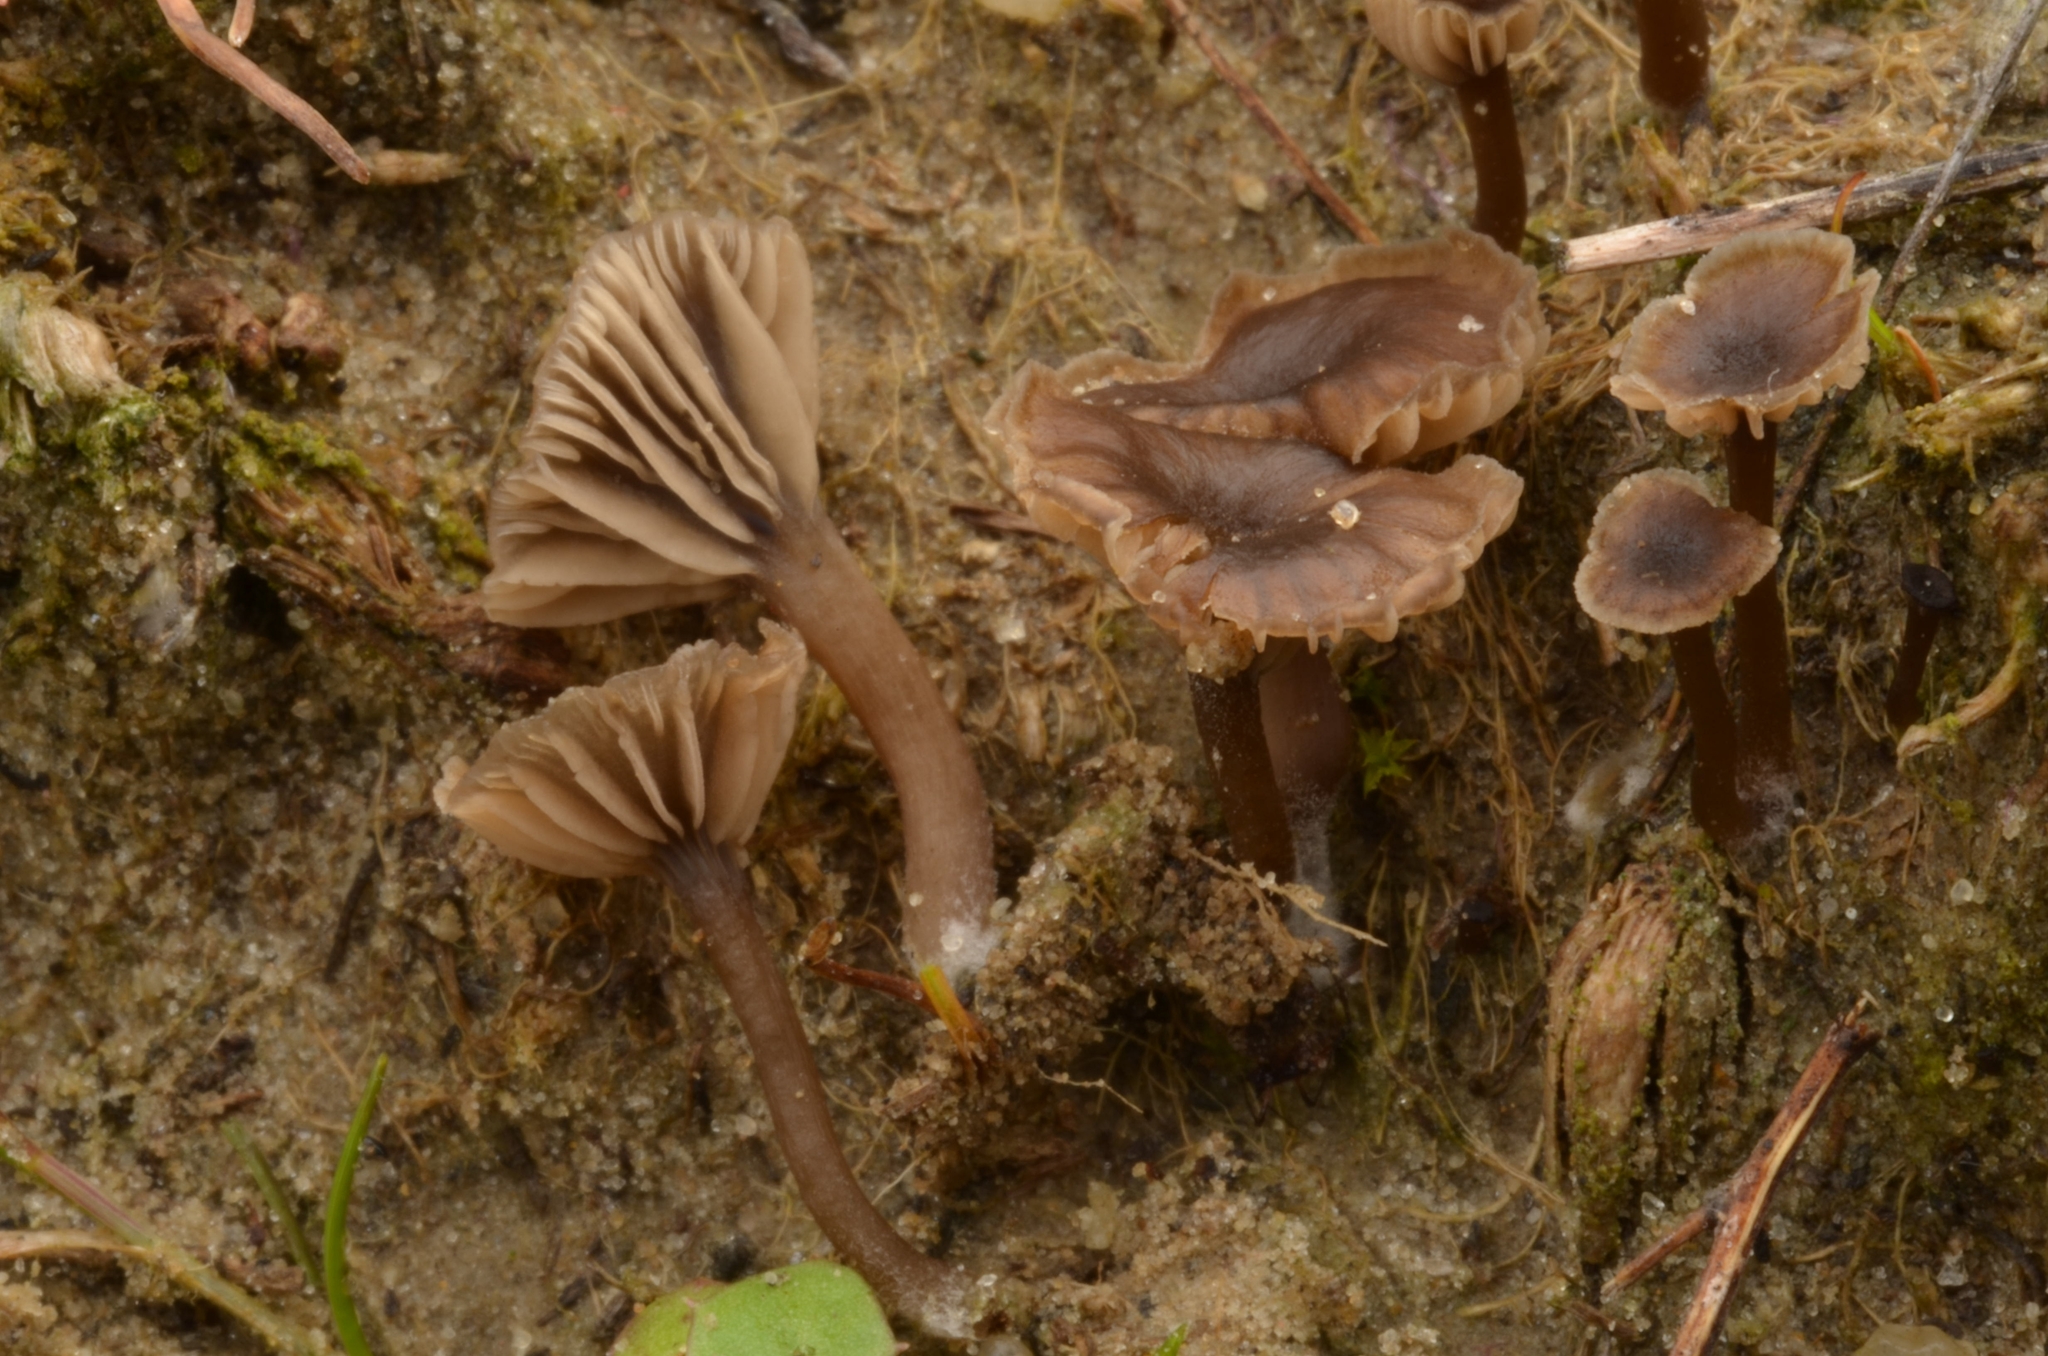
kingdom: Fungi
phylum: Basidiomycota
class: Agaricomycetes
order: Agaricales
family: Hygrophoraceae
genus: Arrhenia
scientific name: Arrhenia baeospora
